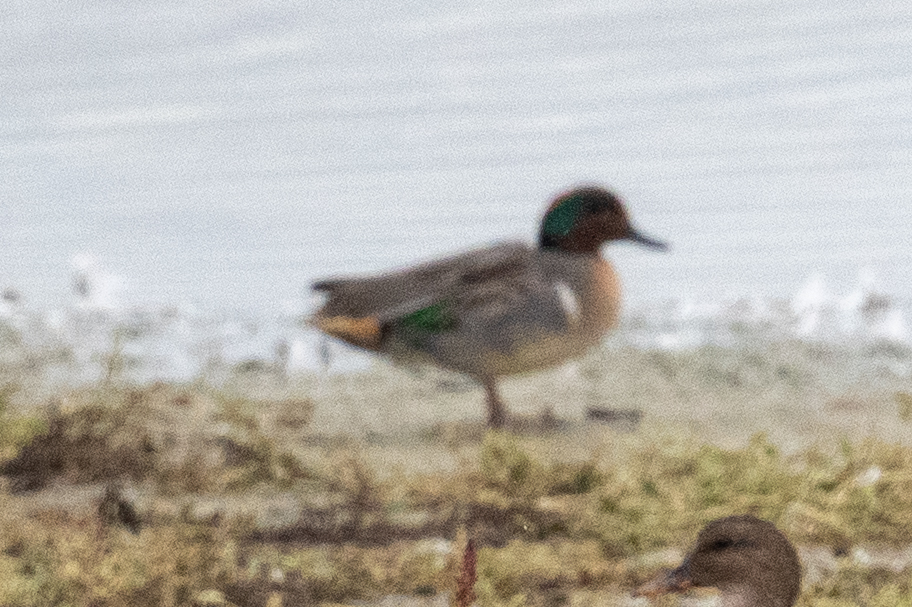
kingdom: Animalia
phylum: Chordata
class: Aves
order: Anseriformes
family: Anatidae
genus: Anas
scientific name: Anas crecca
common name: Eurasian teal
